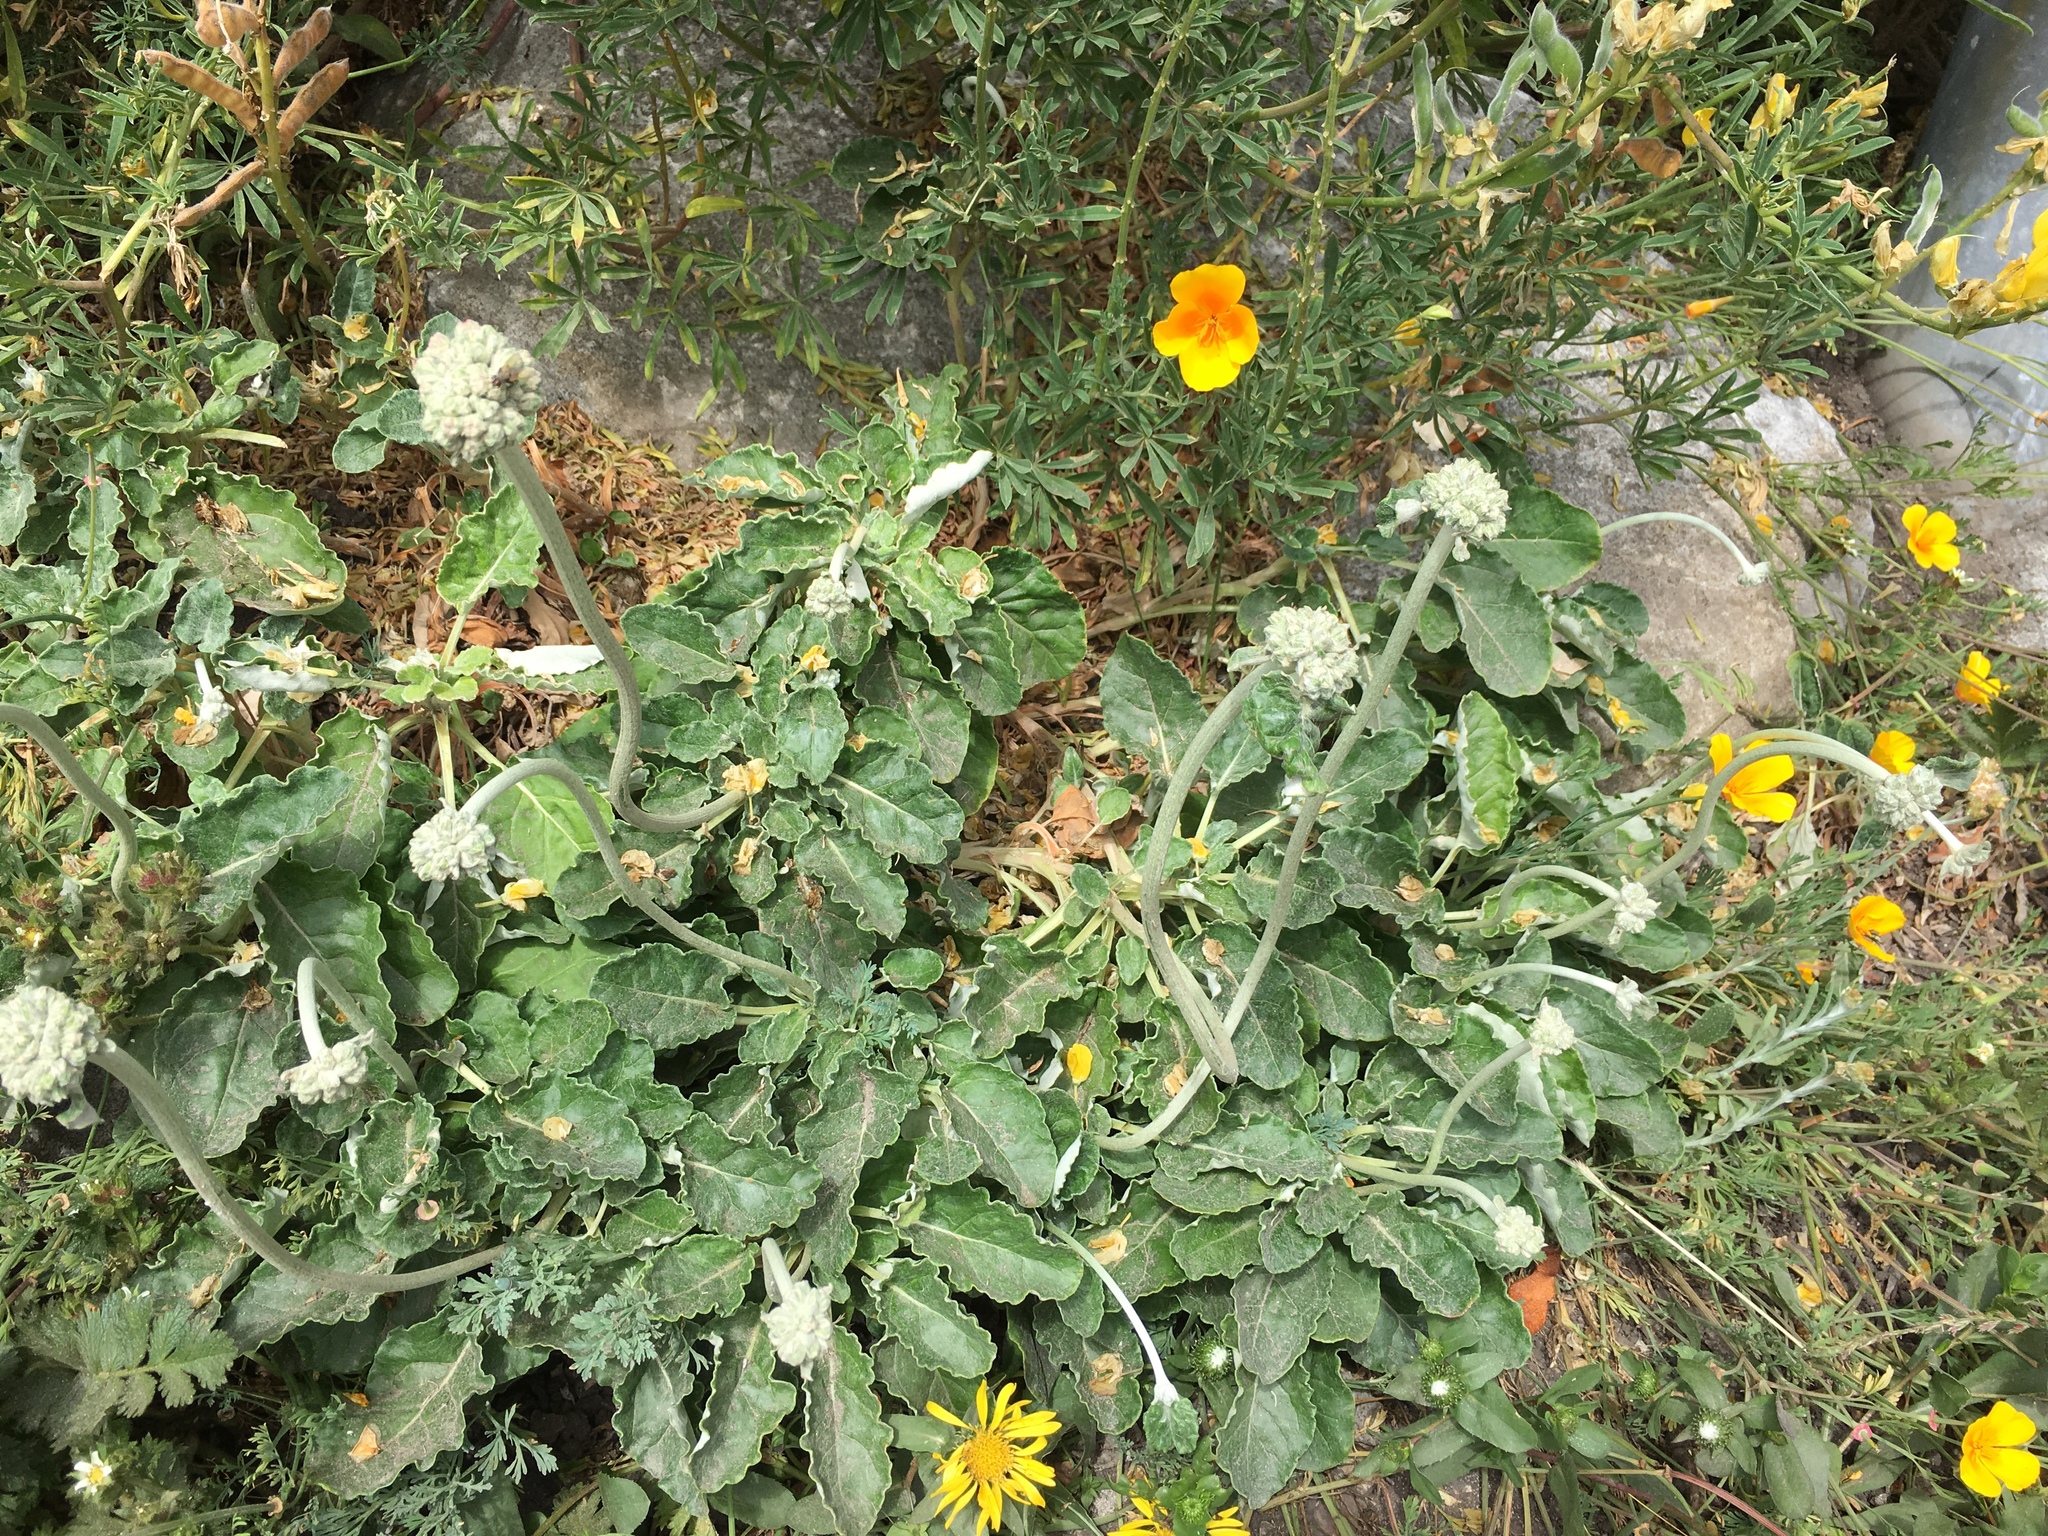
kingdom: Plantae
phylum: Tracheophyta
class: Magnoliopsida
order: Caryophyllales
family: Polygonaceae
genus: Eriogonum
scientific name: Eriogonum latifolium
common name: Seaside wild buckwheat
